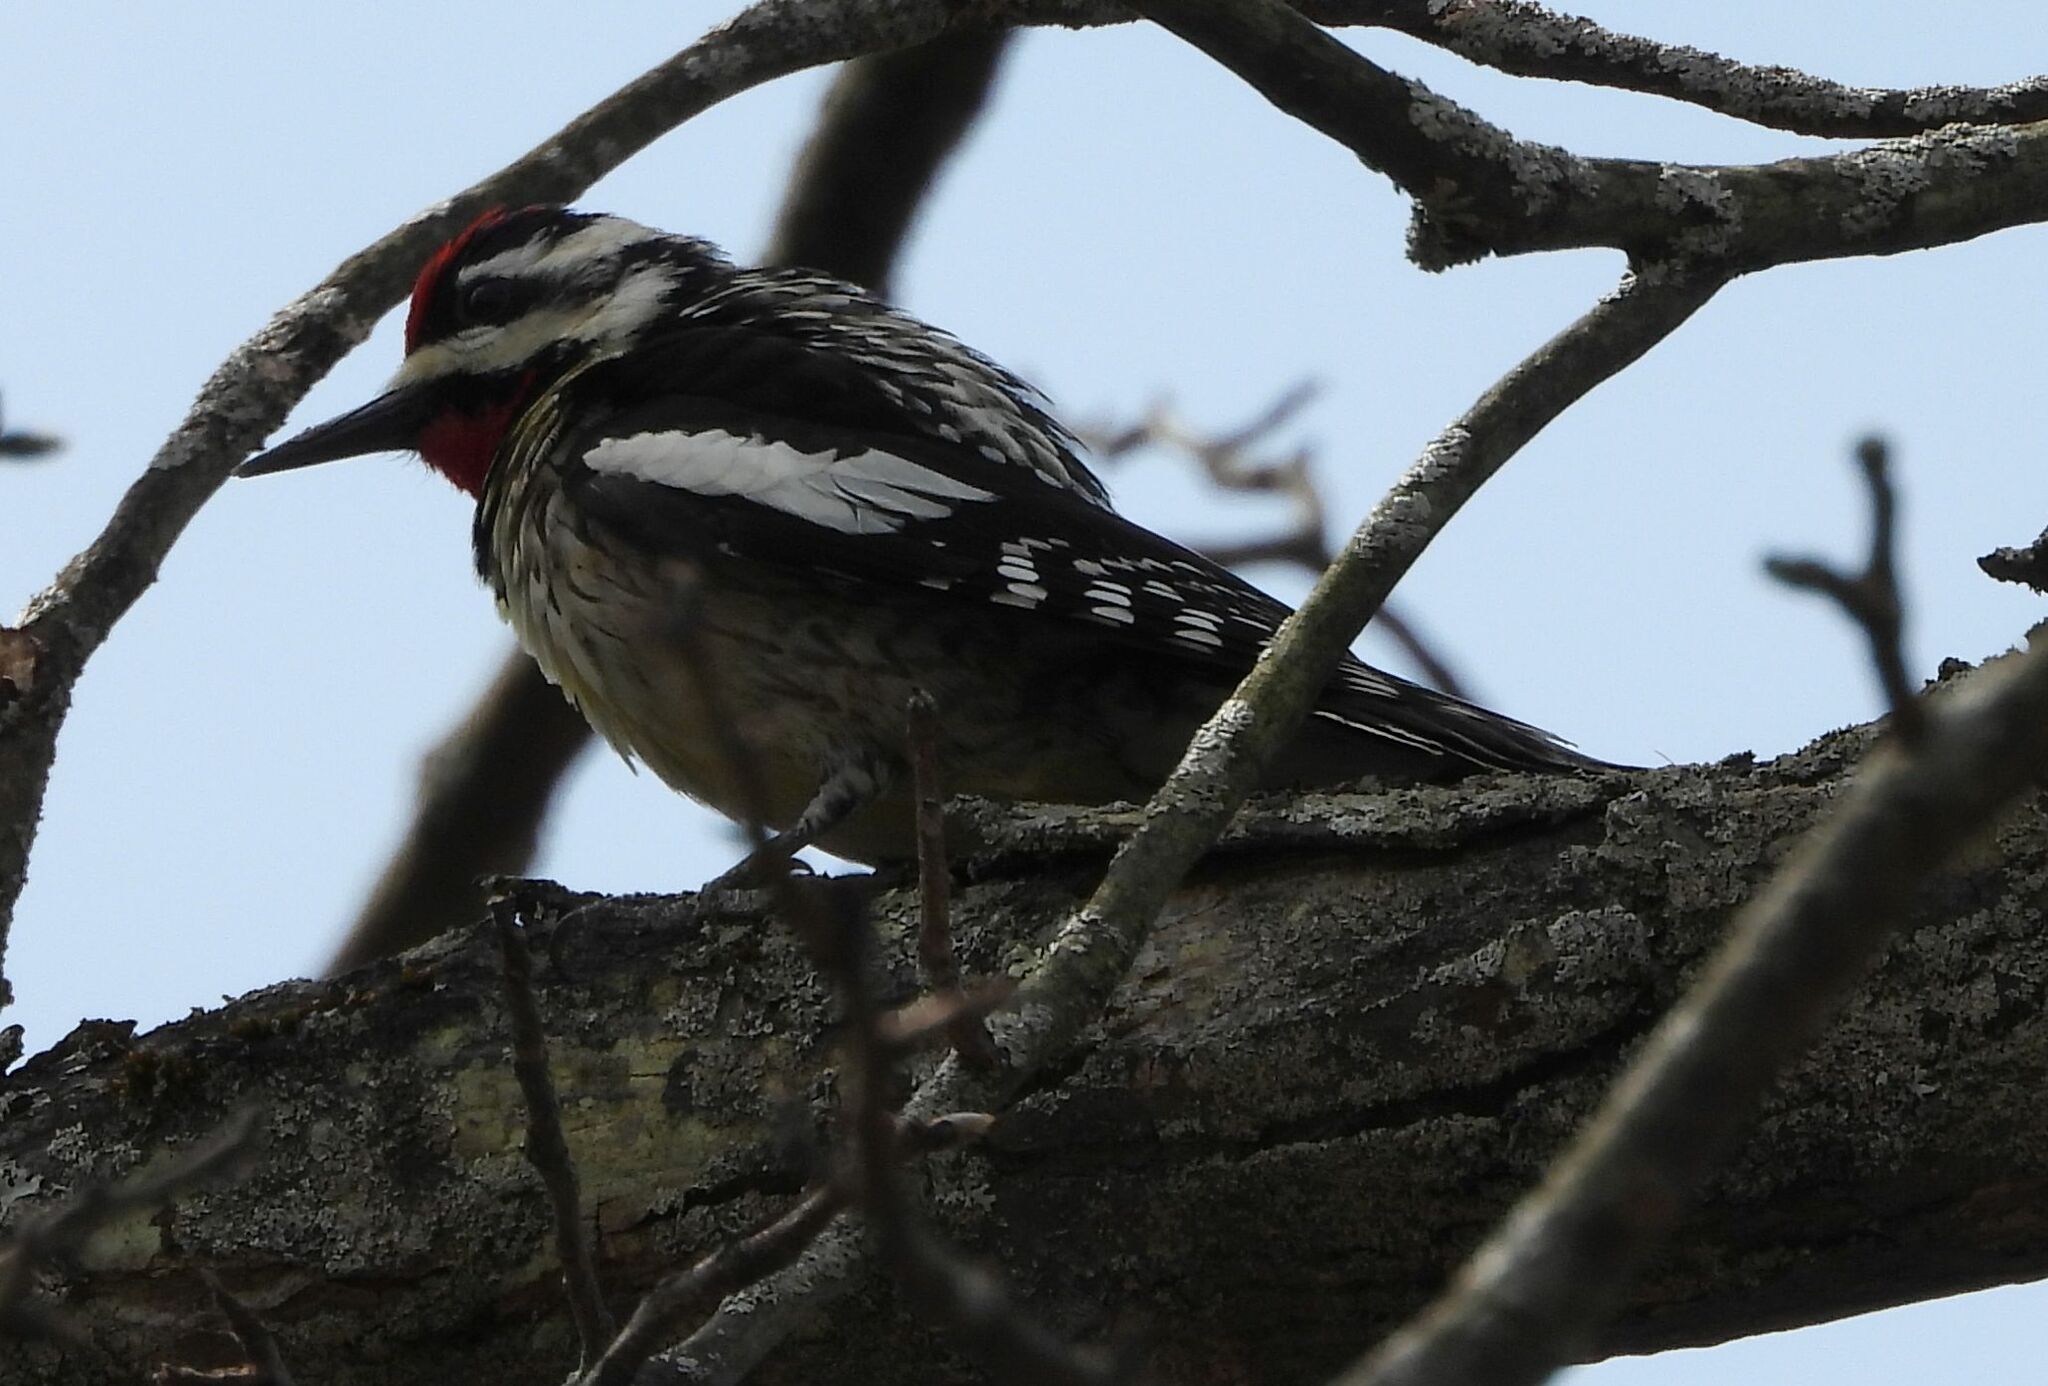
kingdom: Animalia
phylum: Chordata
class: Aves
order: Piciformes
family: Picidae
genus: Sphyrapicus
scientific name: Sphyrapicus varius
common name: Yellow-bellied sapsucker
